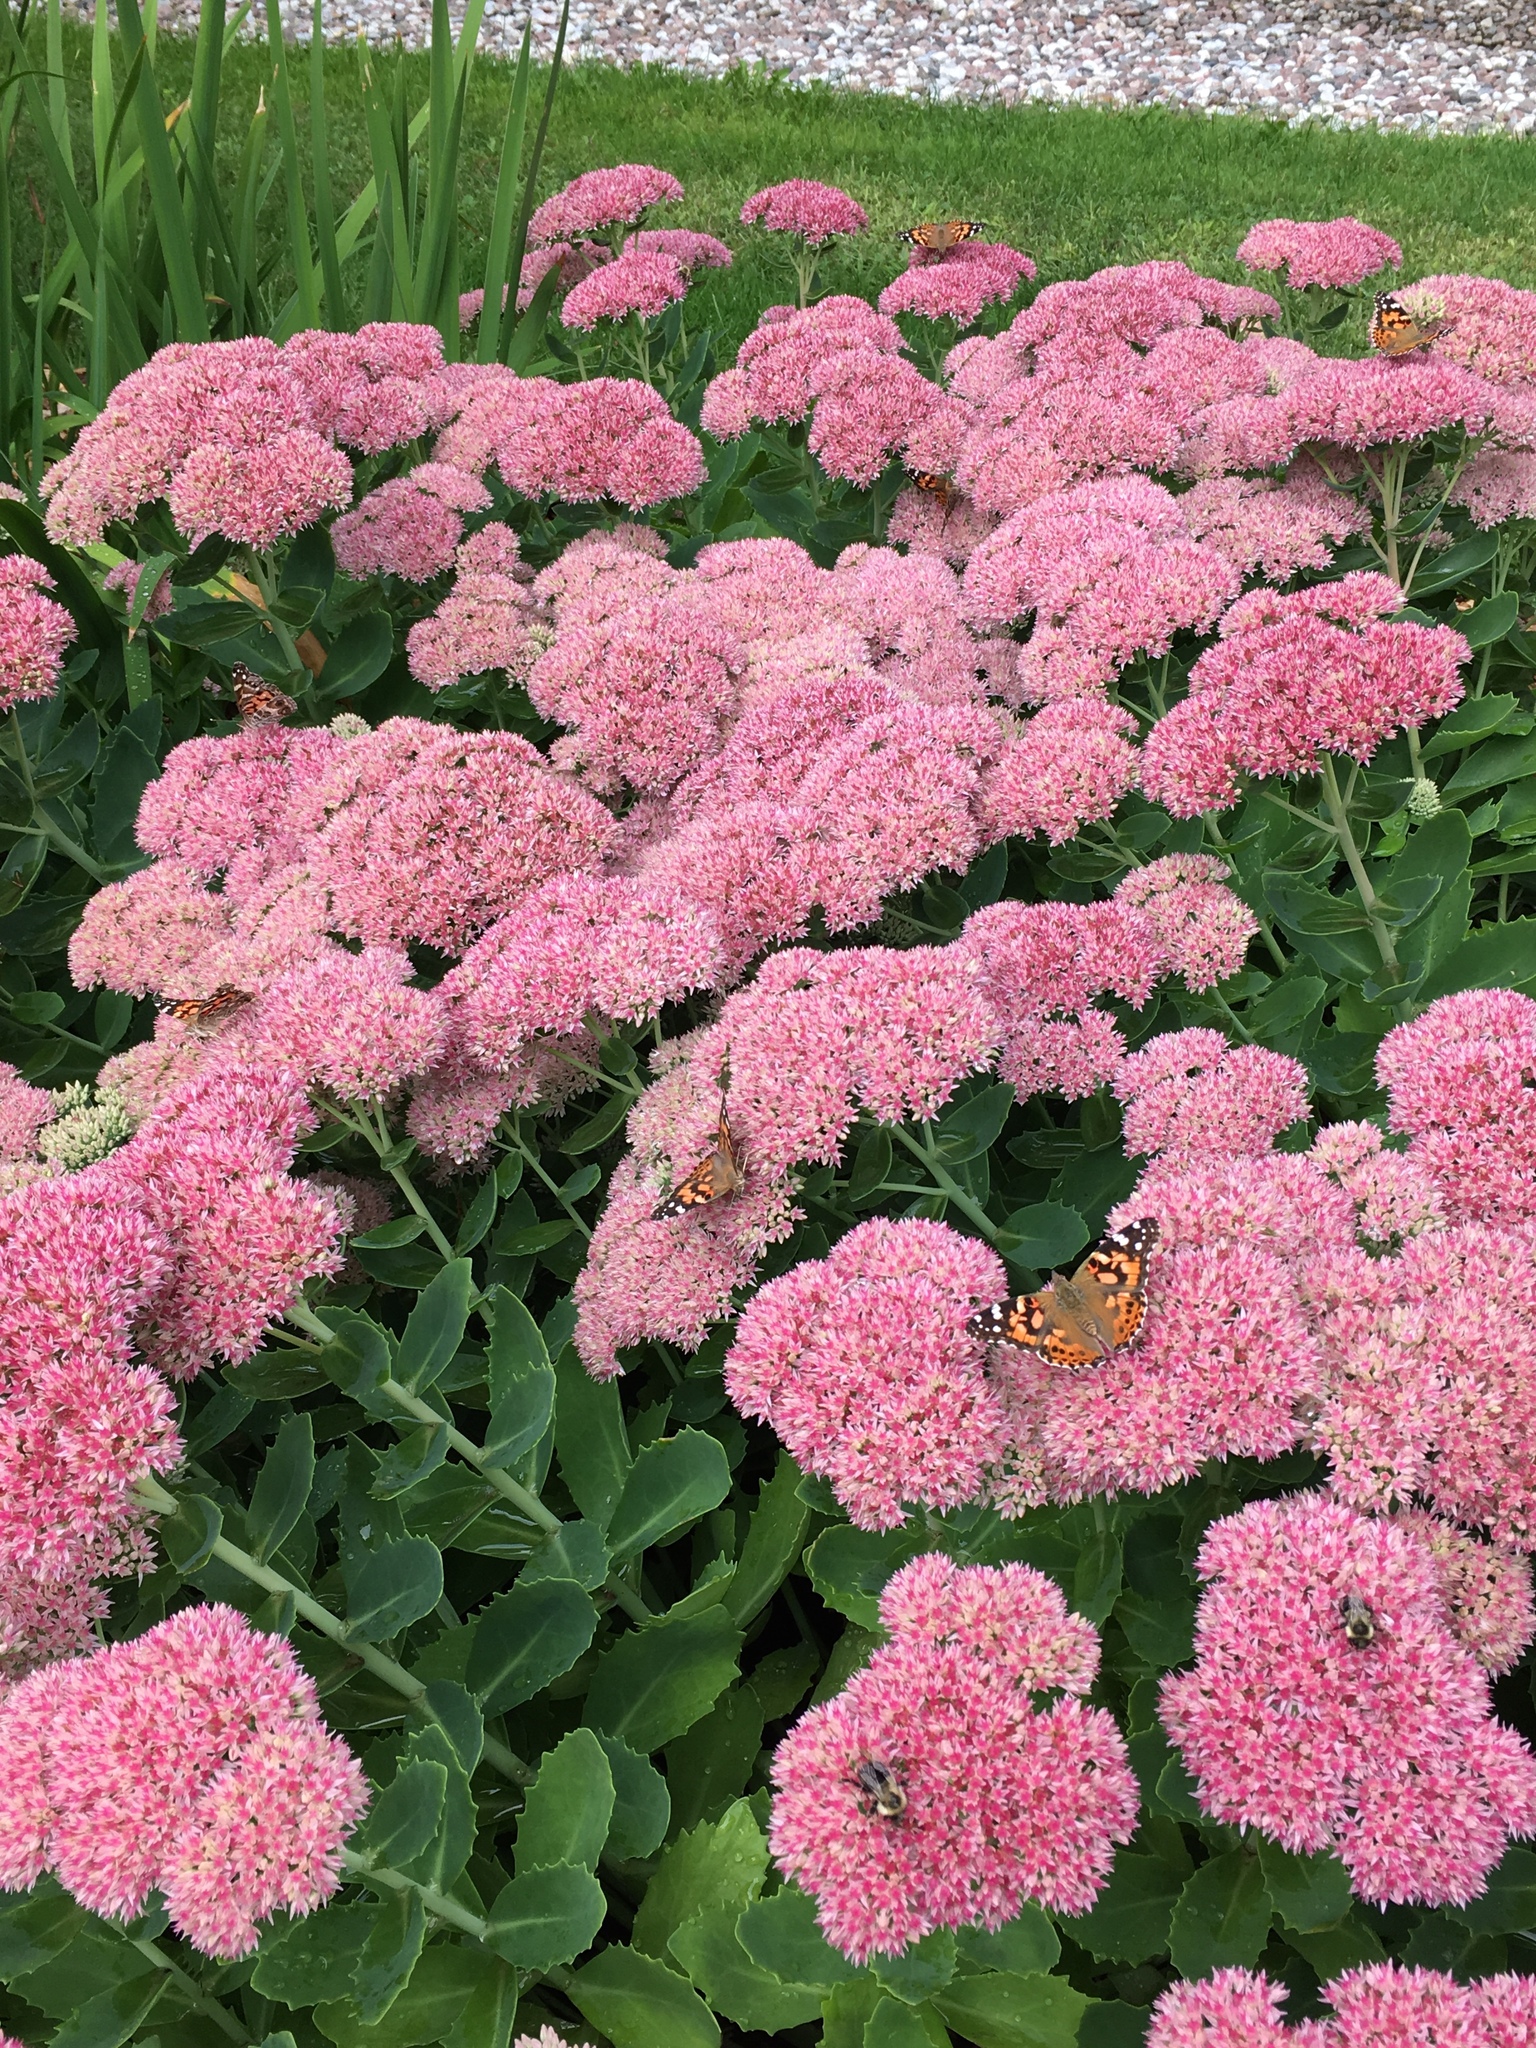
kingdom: Animalia
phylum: Arthropoda
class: Insecta
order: Lepidoptera
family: Nymphalidae
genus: Vanessa
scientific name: Vanessa cardui
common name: Painted lady
